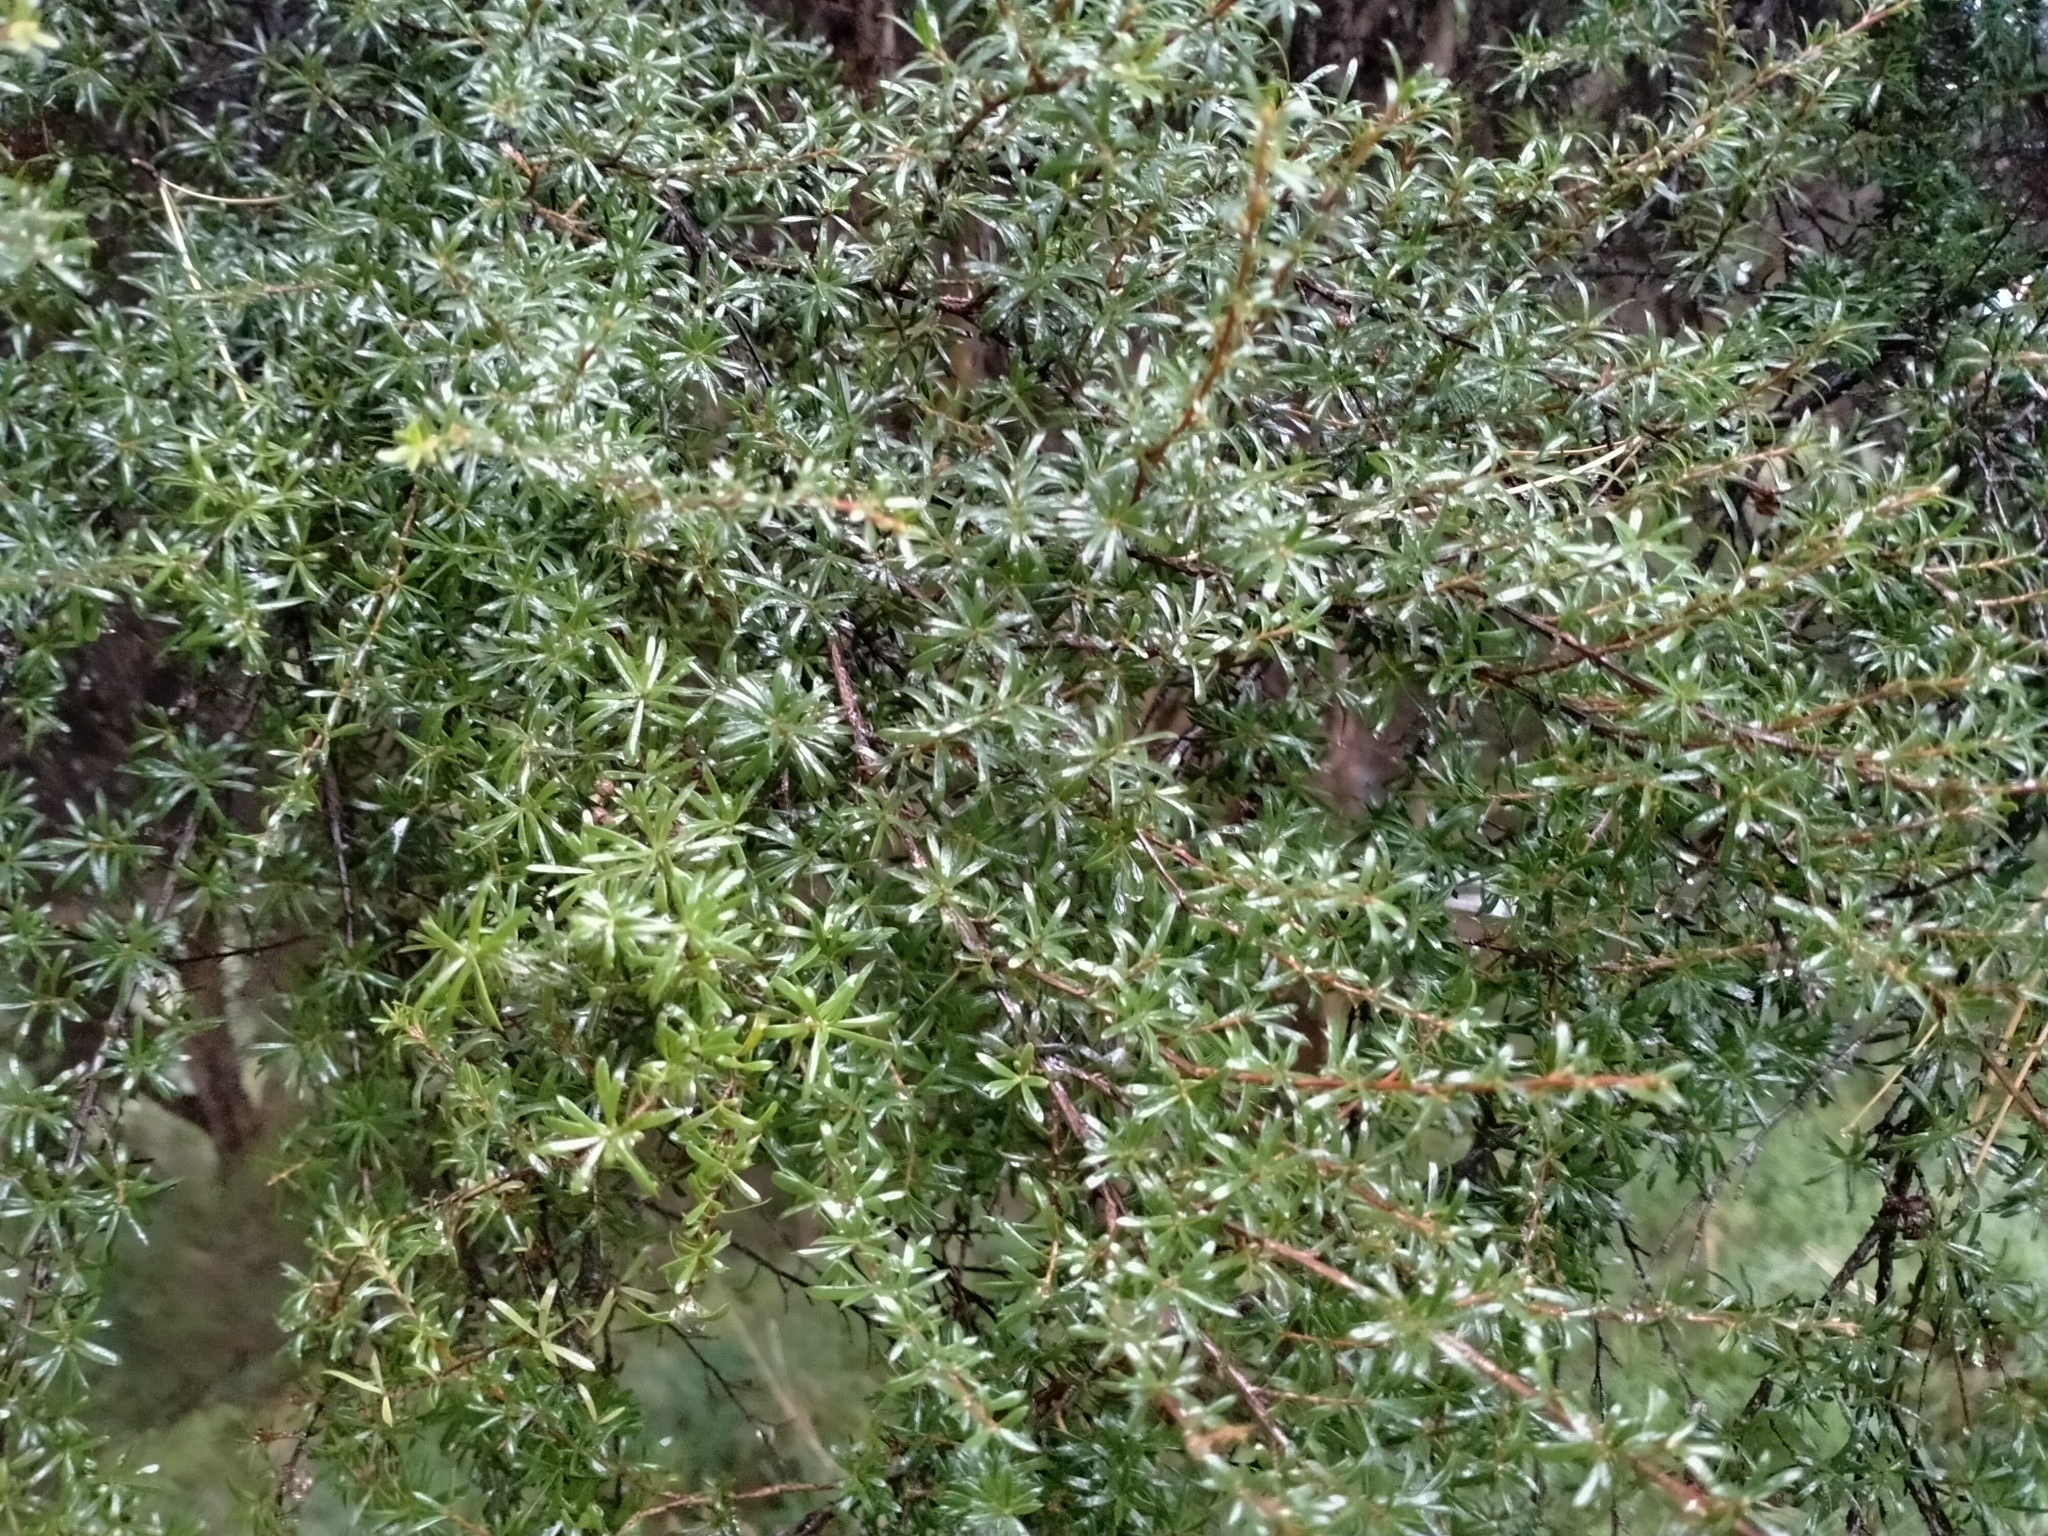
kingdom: Plantae
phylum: Tracheophyta
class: Magnoliopsida
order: Myrtales
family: Myrtaceae
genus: Kunzea
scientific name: Kunzea robusta
